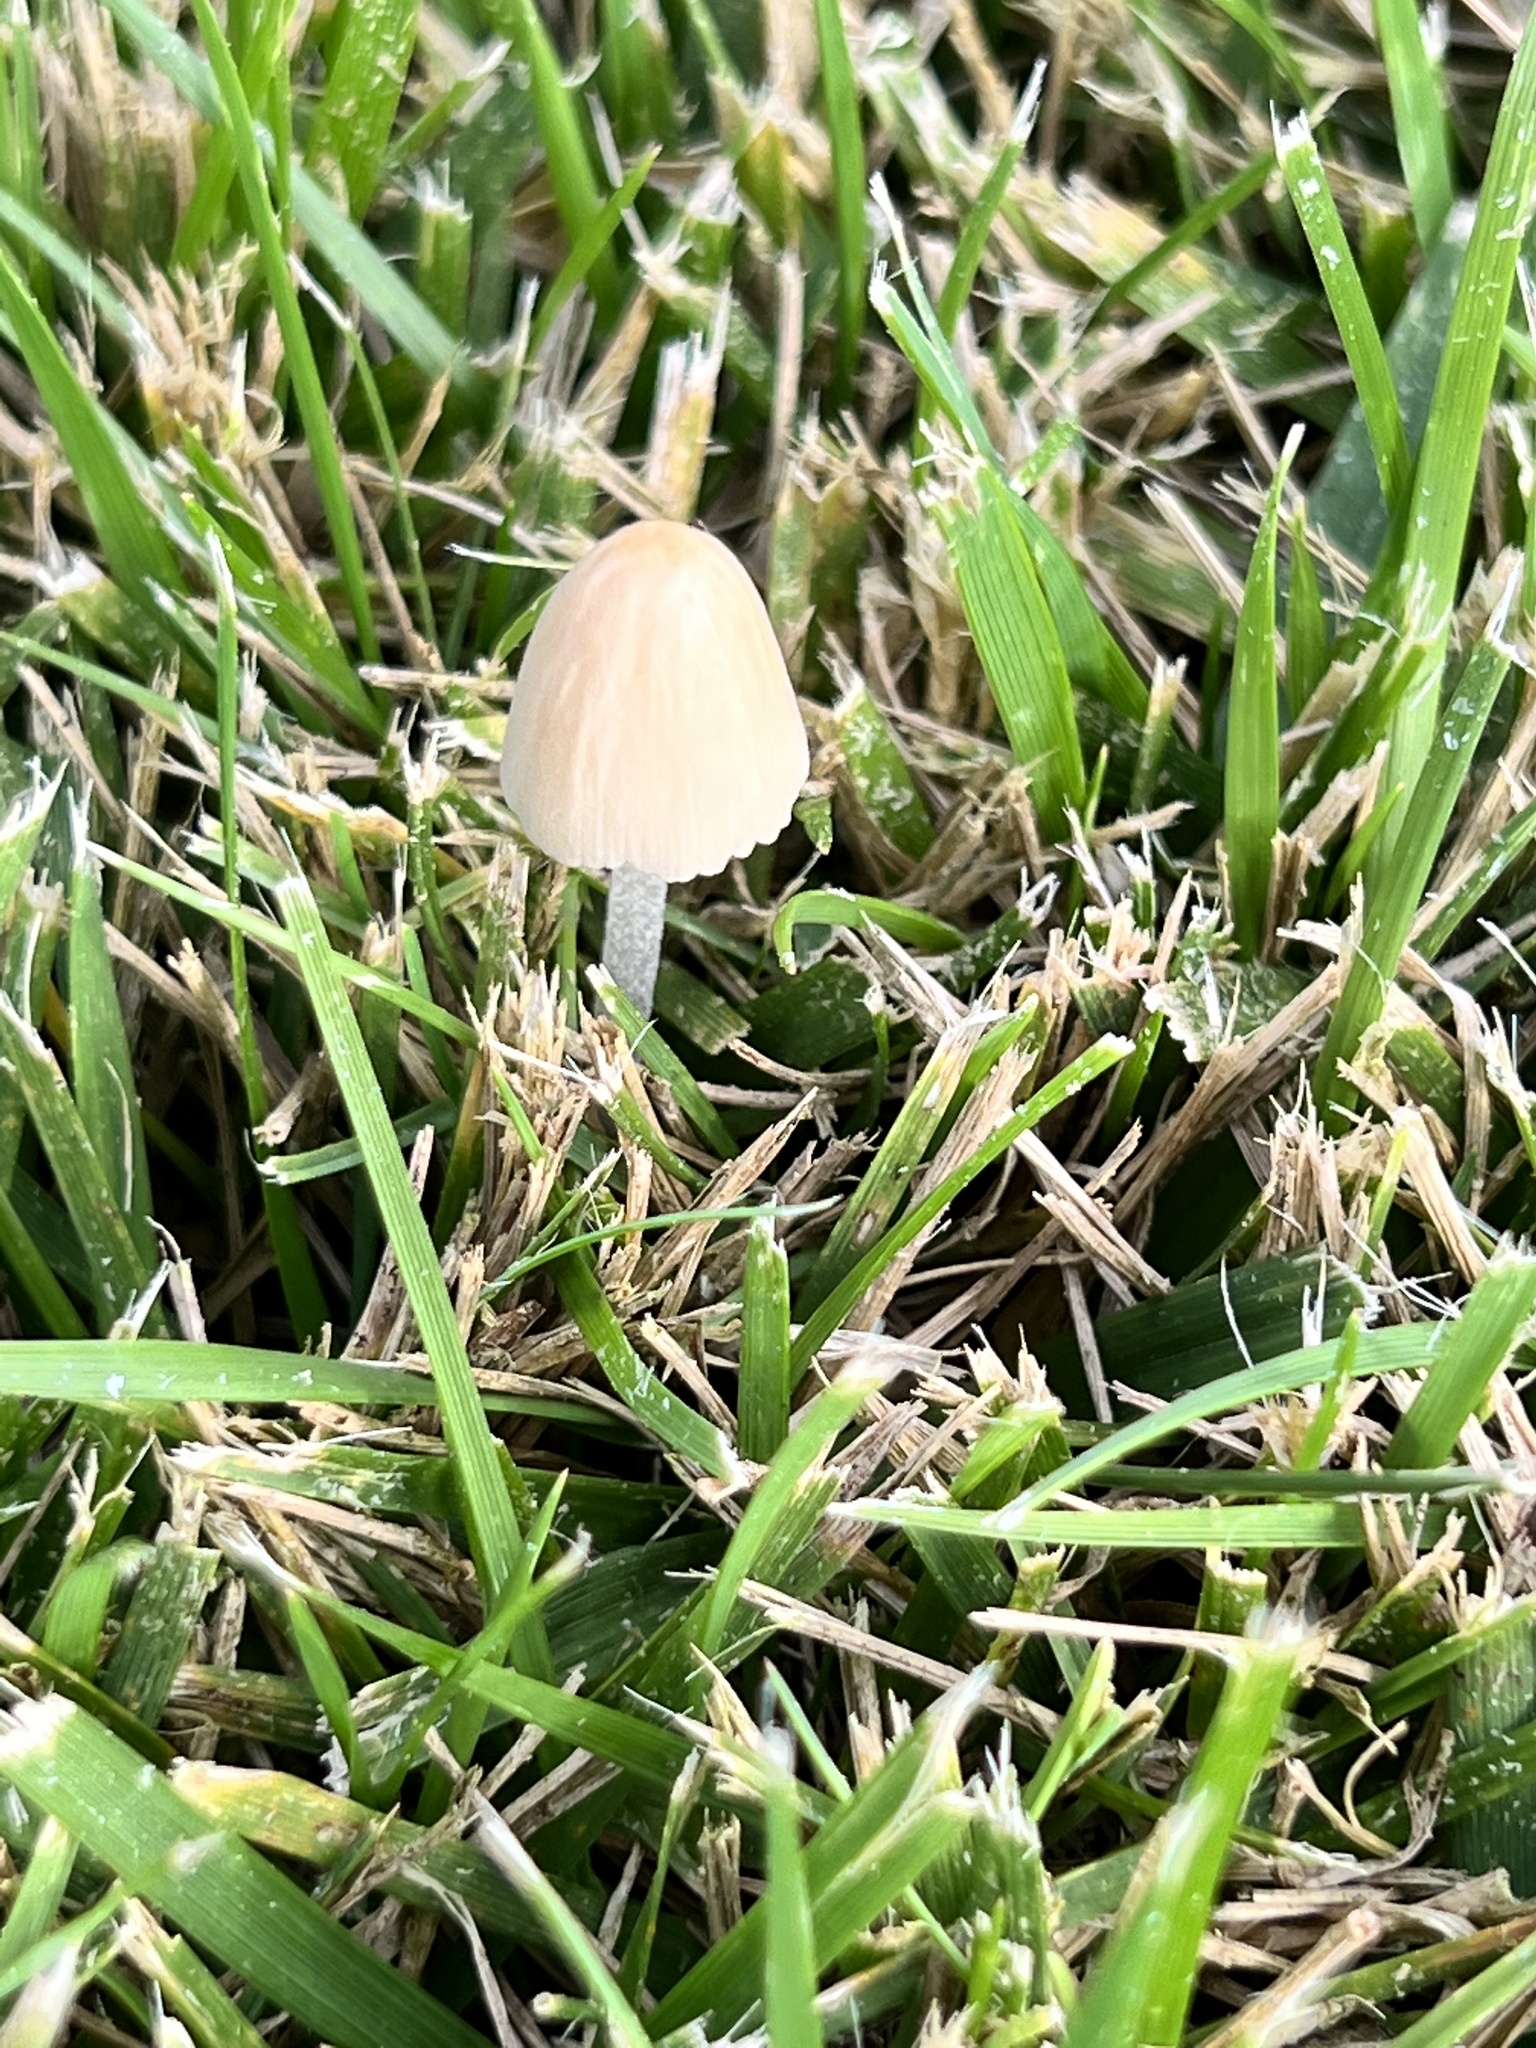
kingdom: Fungi
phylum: Basidiomycota
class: Agaricomycetes
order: Agaricales
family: Bolbitiaceae
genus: Conocybe
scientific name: Conocybe apala
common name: Milky conecap
